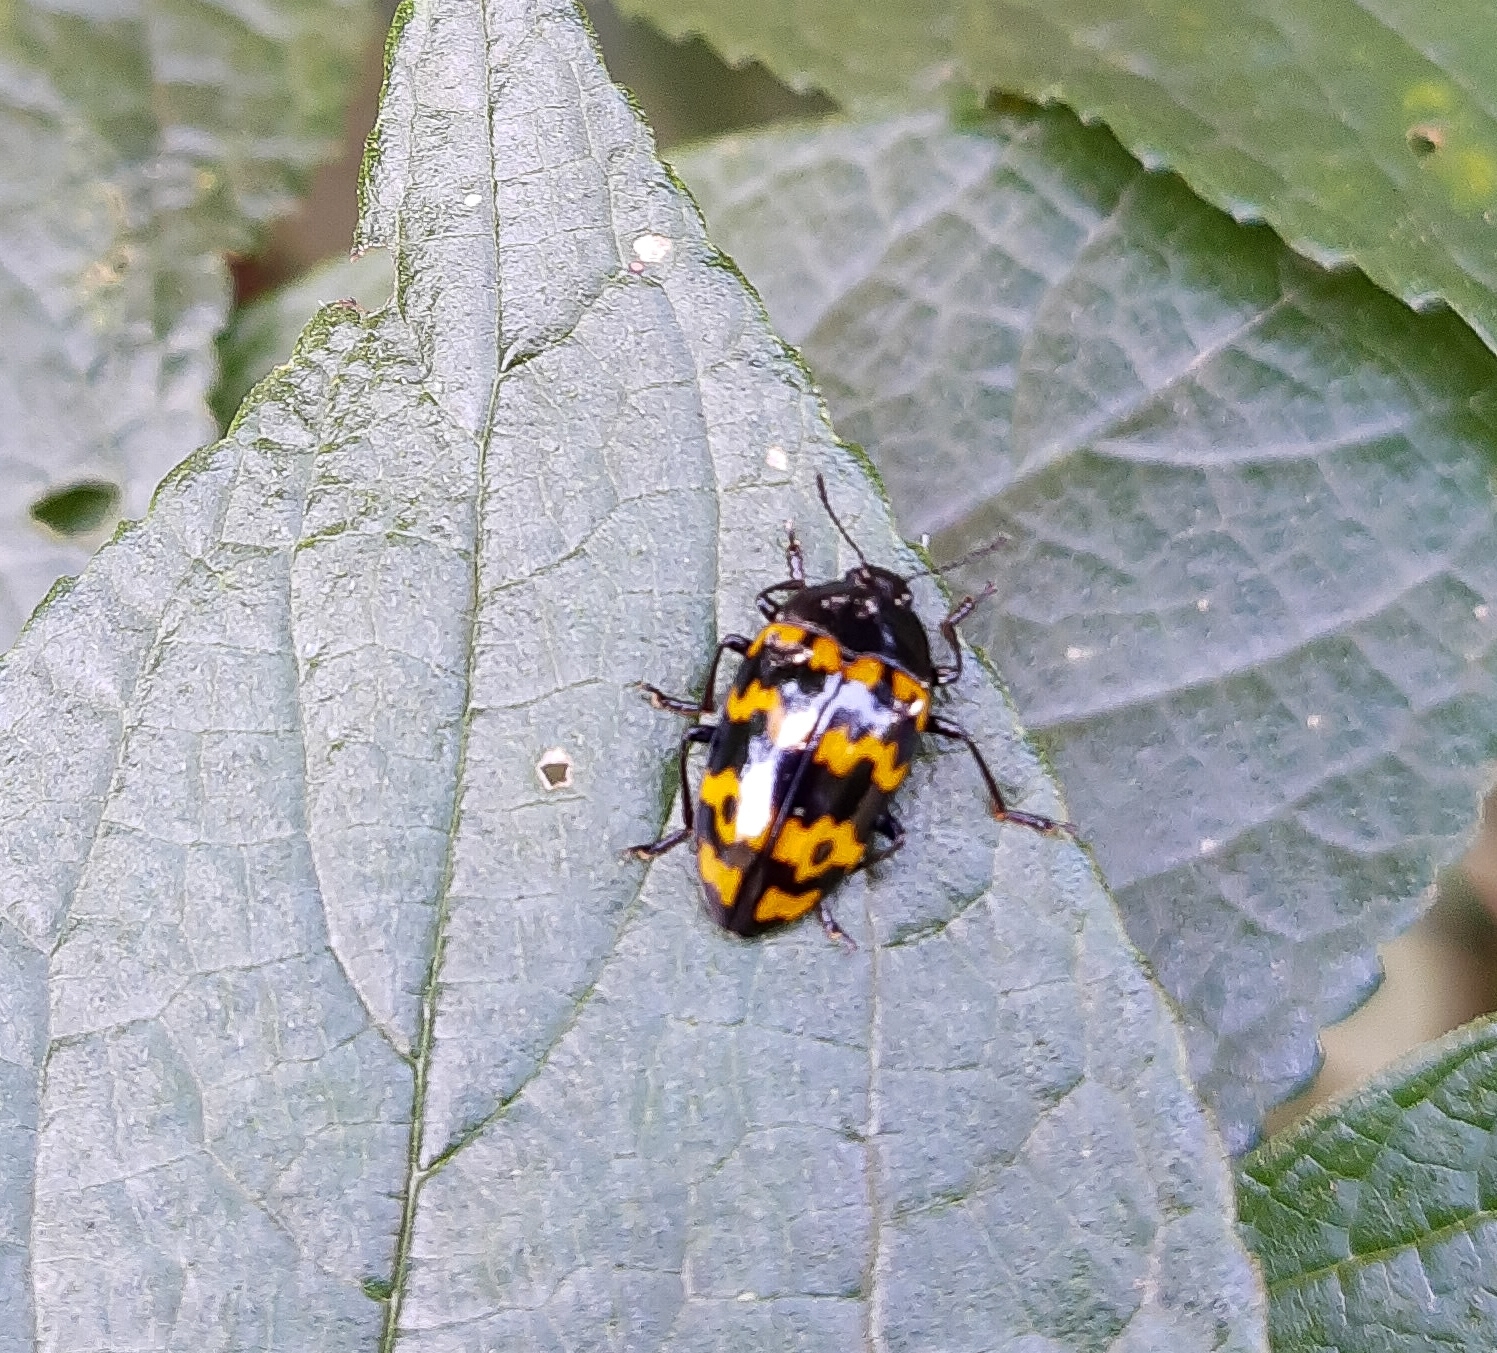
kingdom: Animalia
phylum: Arthropoda
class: Insecta
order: Coleoptera
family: Erotylidae
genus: Iphiclus
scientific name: Iphiclus
